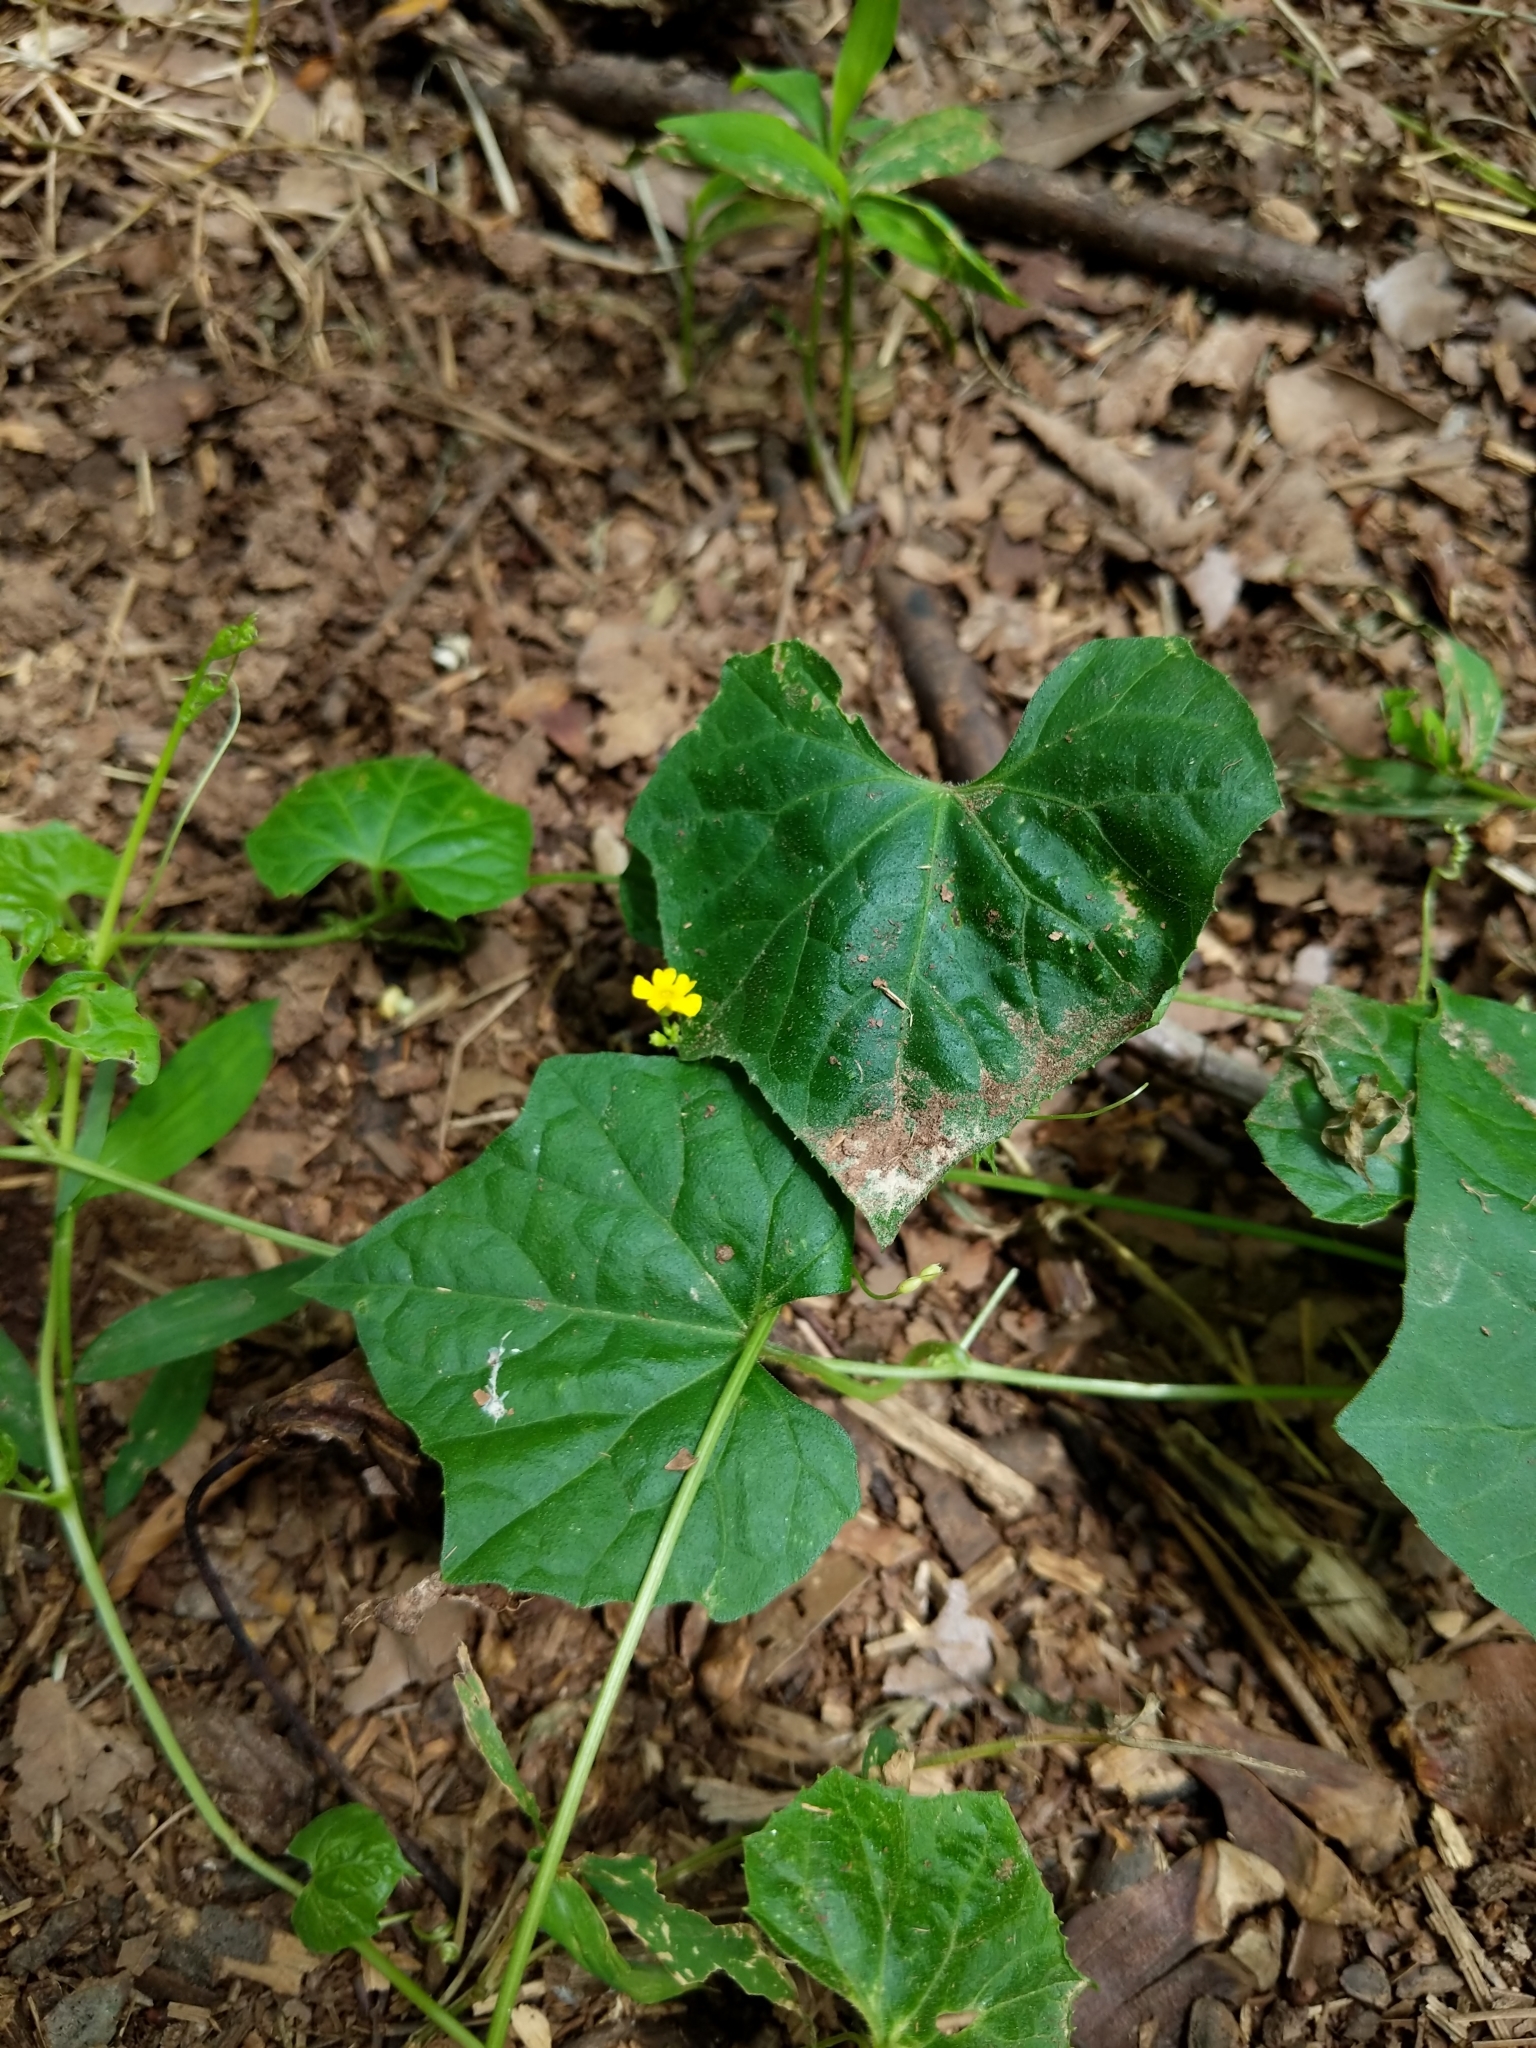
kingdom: Plantae
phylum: Tracheophyta
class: Magnoliopsida
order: Cucurbitales
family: Cucurbitaceae
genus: Melothria
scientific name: Melothria pendula
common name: Creeping-cucumber
